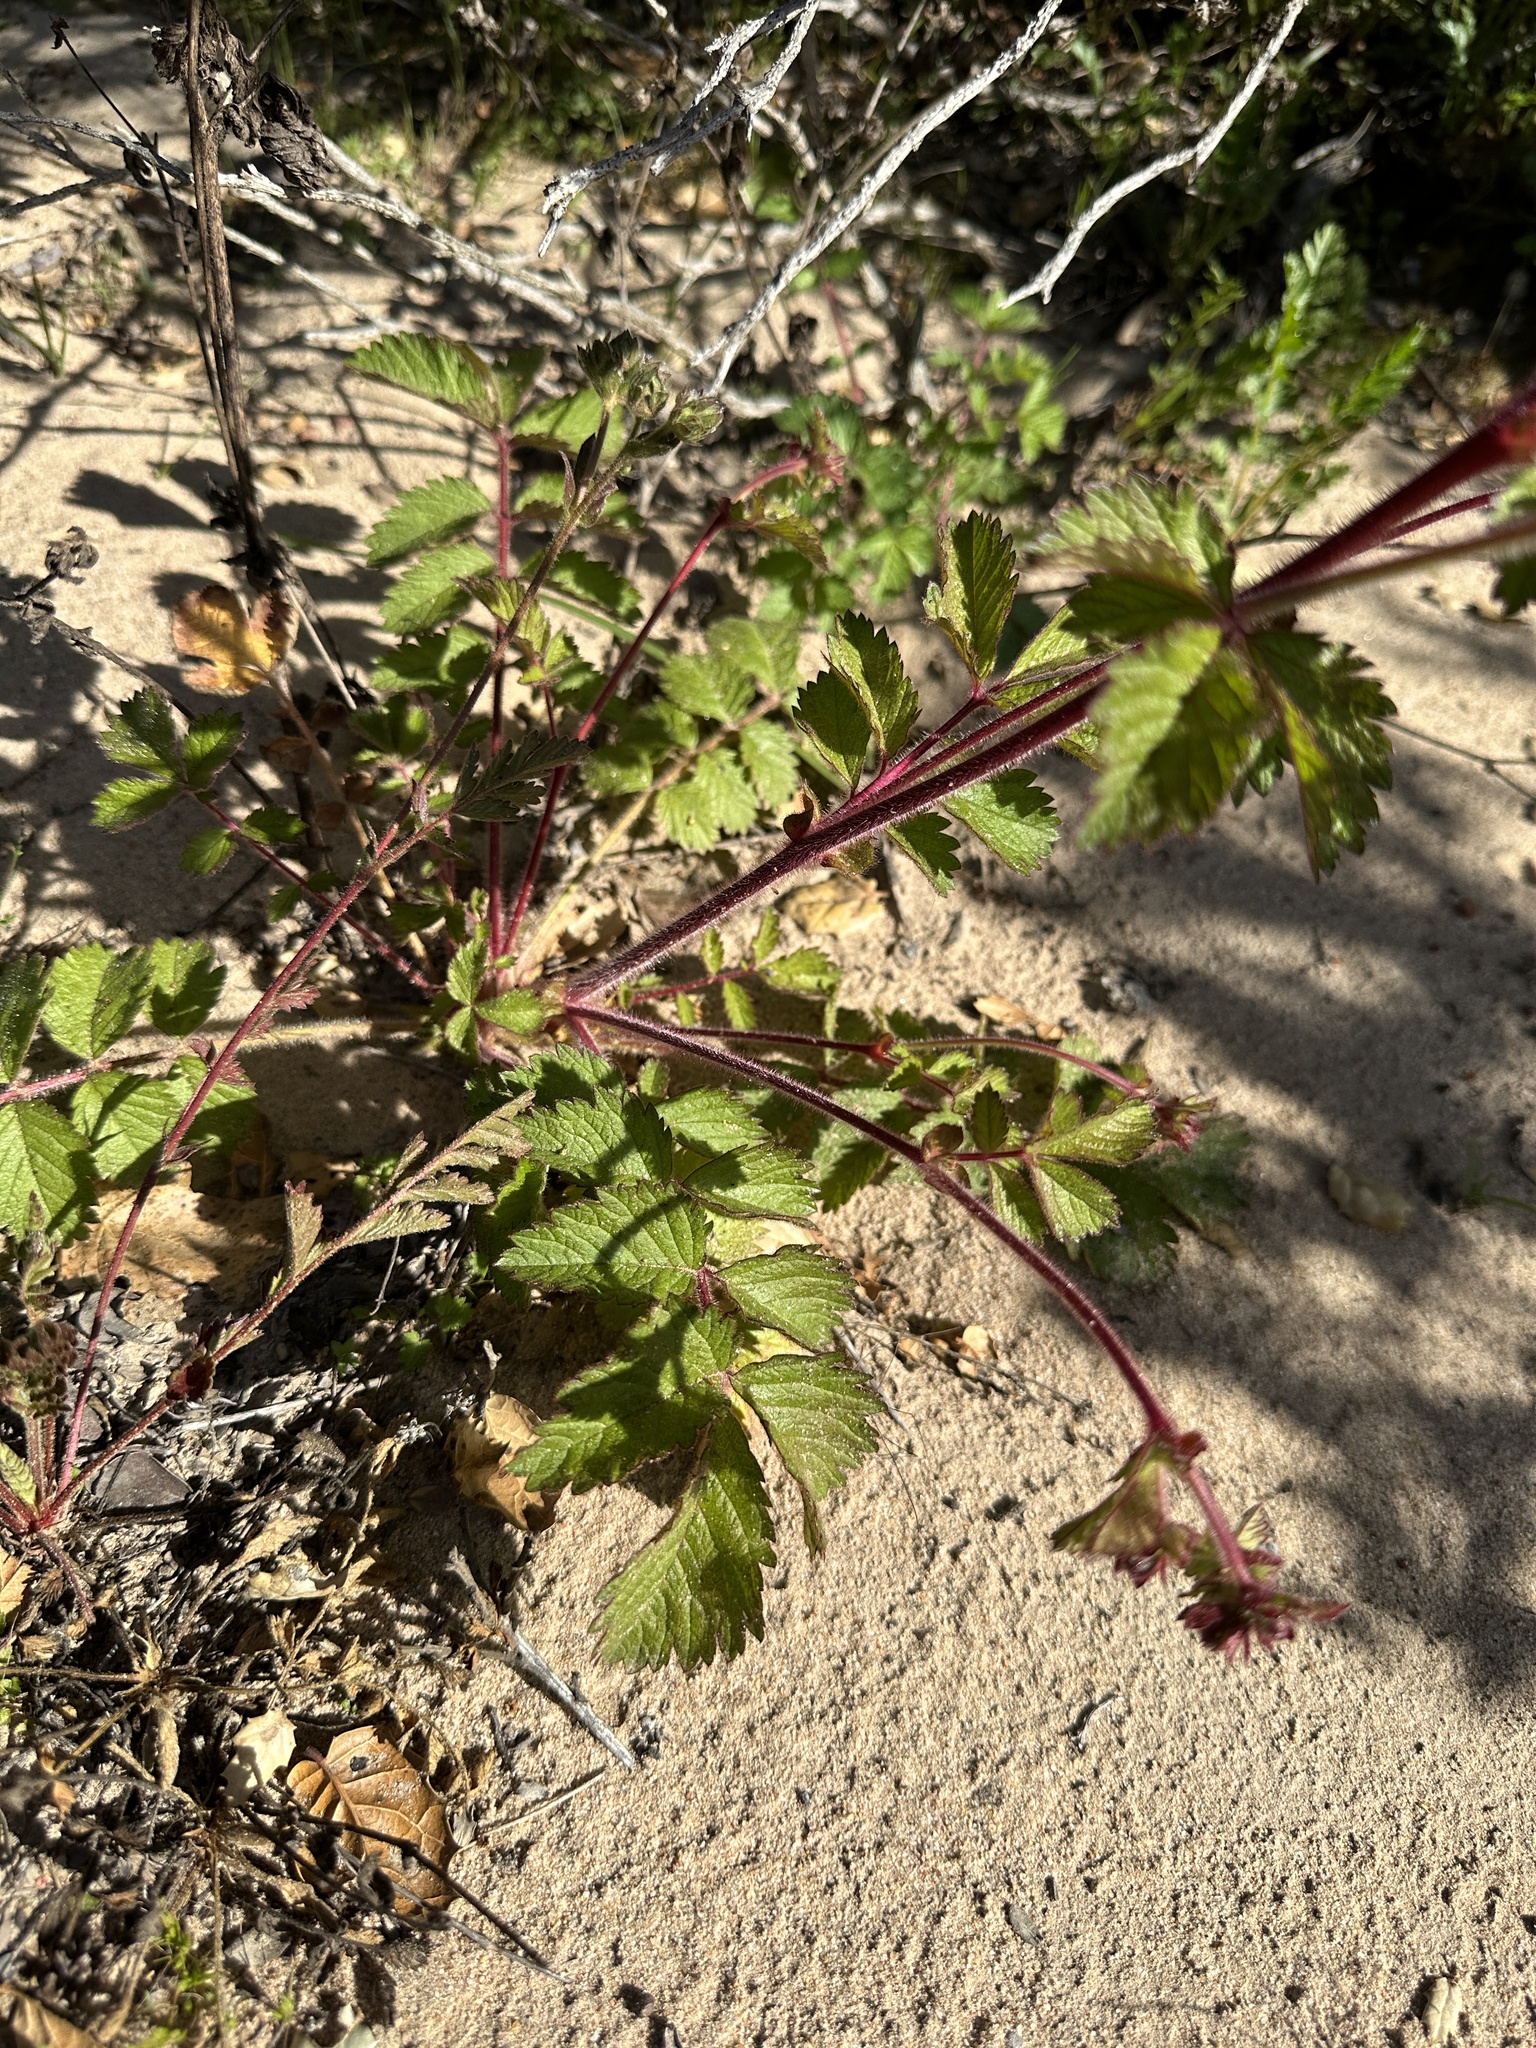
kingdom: Plantae
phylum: Tracheophyta
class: Magnoliopsida
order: Rosales
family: Rosaceae
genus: Drymocallis
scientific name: Drymocallis glandulosa
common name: Sticky cinquefoil
